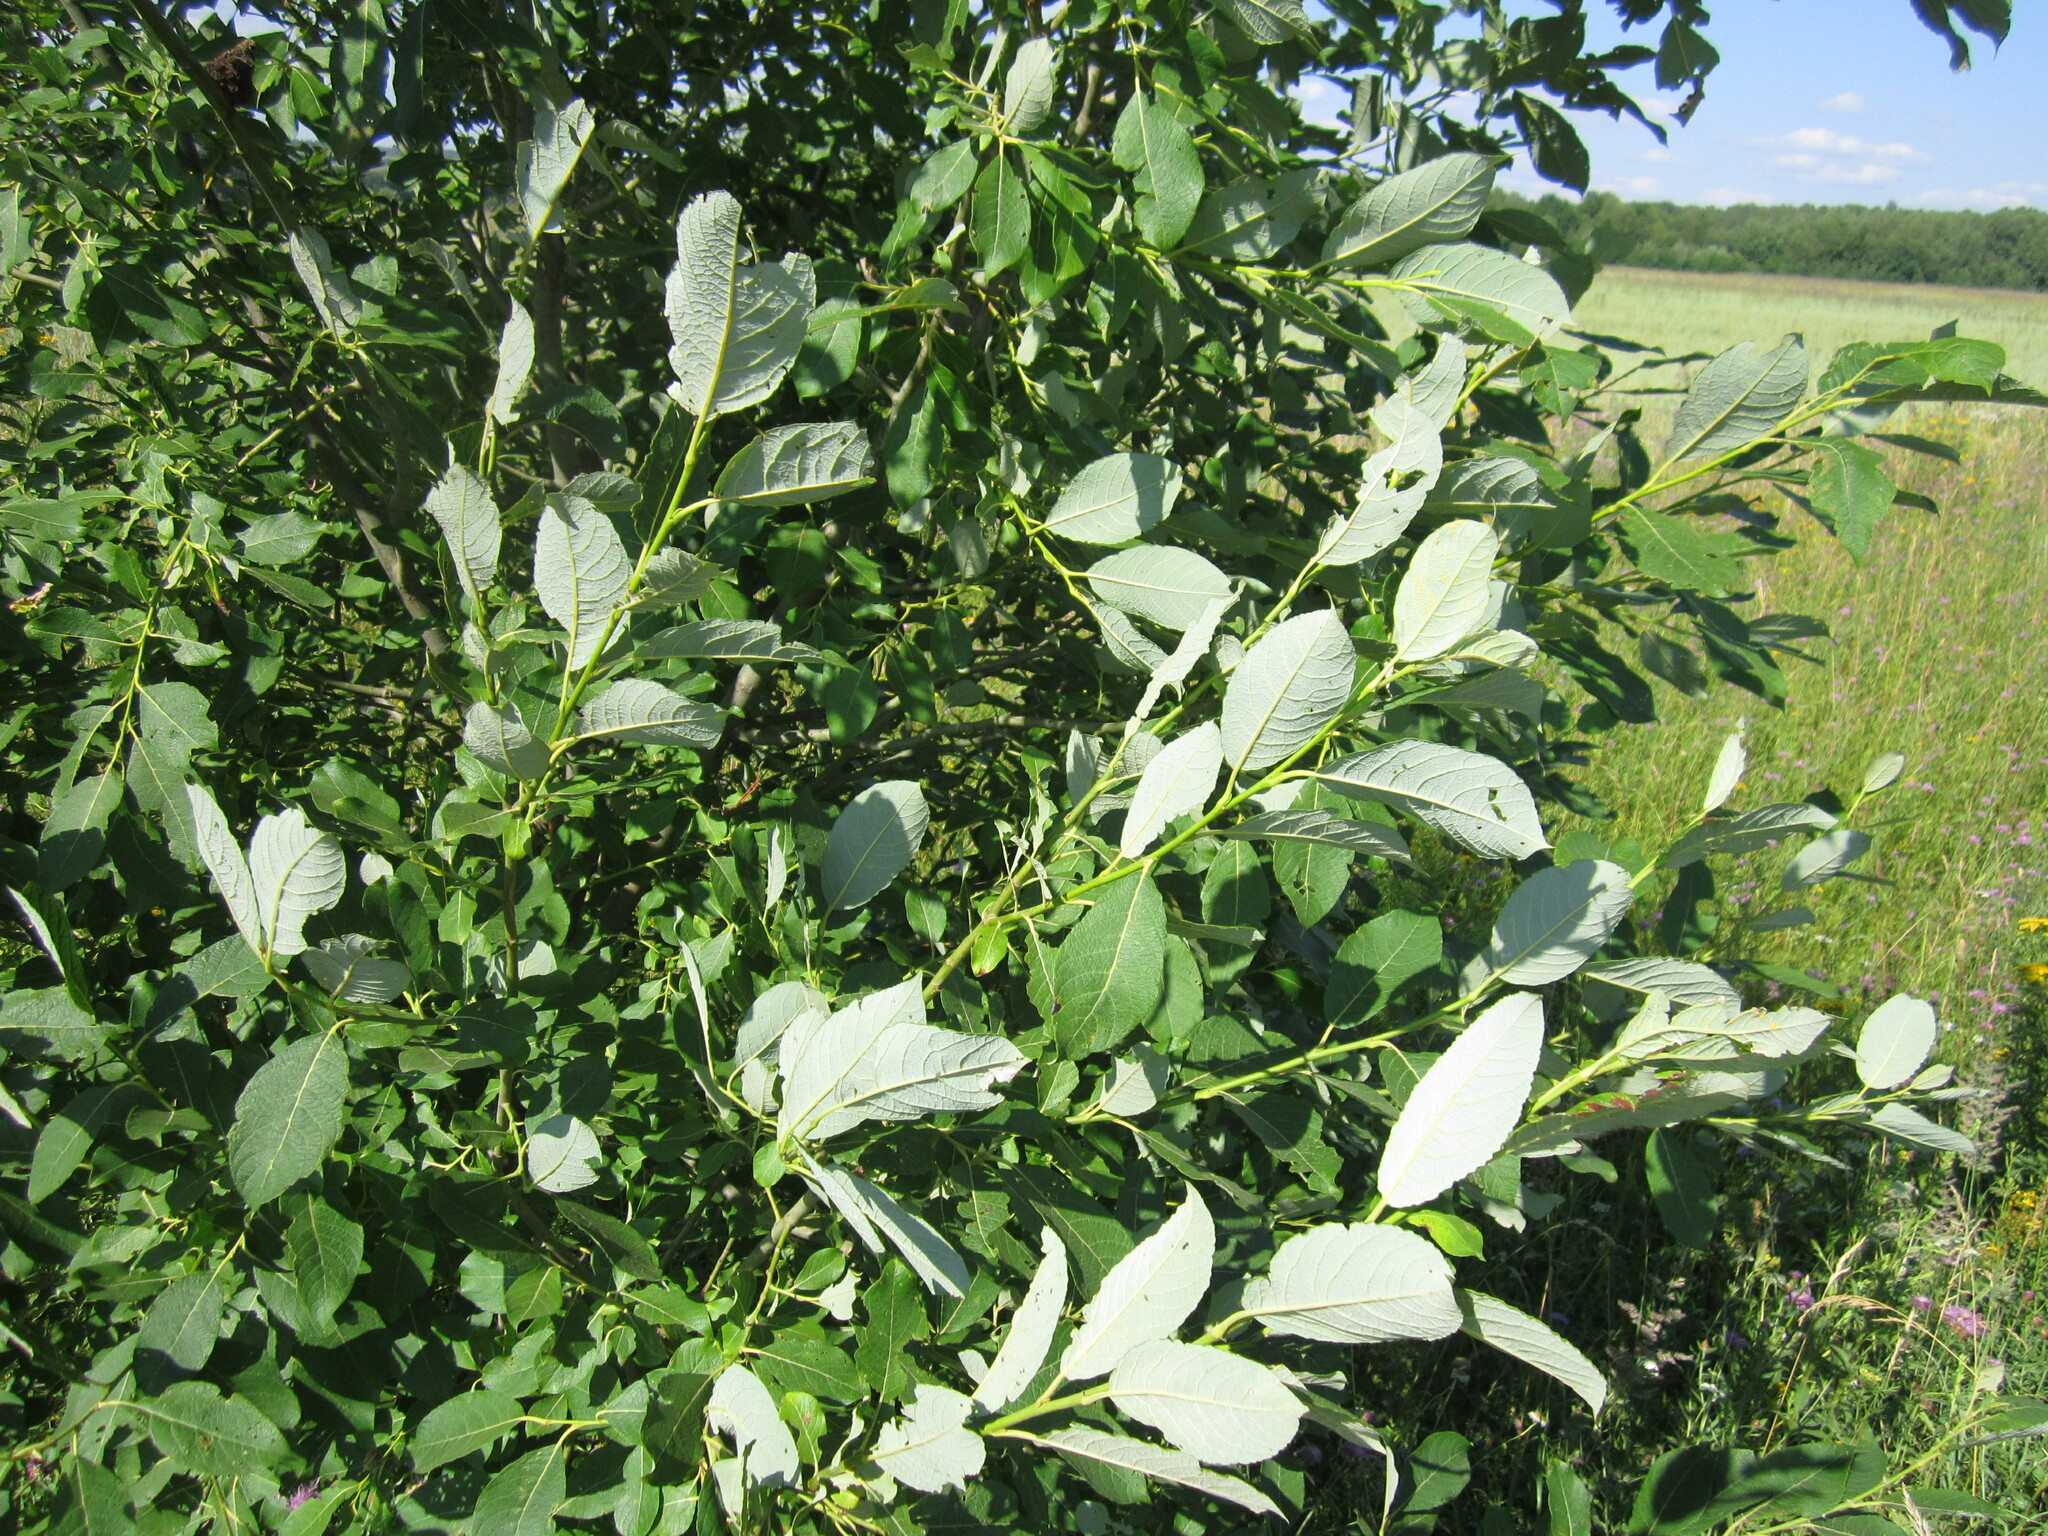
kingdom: Plantae
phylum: Tracheophyta
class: Magnoliopsida
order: Malpighiales
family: Salicaceae
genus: Salix
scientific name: Salix caprea
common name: Goat willow
